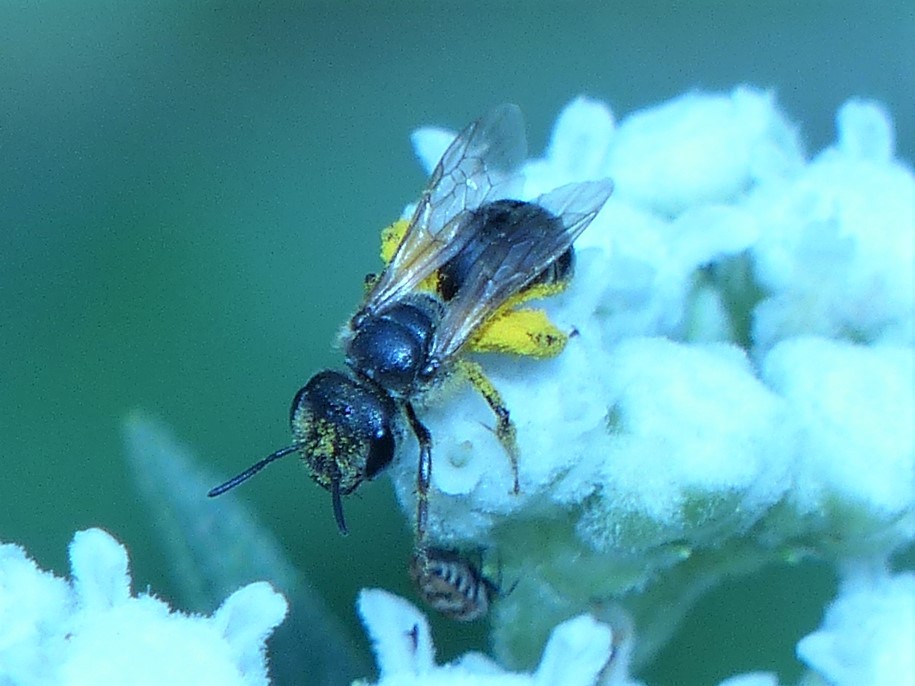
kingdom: Animalia
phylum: Arthropoda
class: Insecta
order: Hymenoptera
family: Halictidae
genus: Halictus
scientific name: Halictus ligatus
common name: Ligated furrow bee
